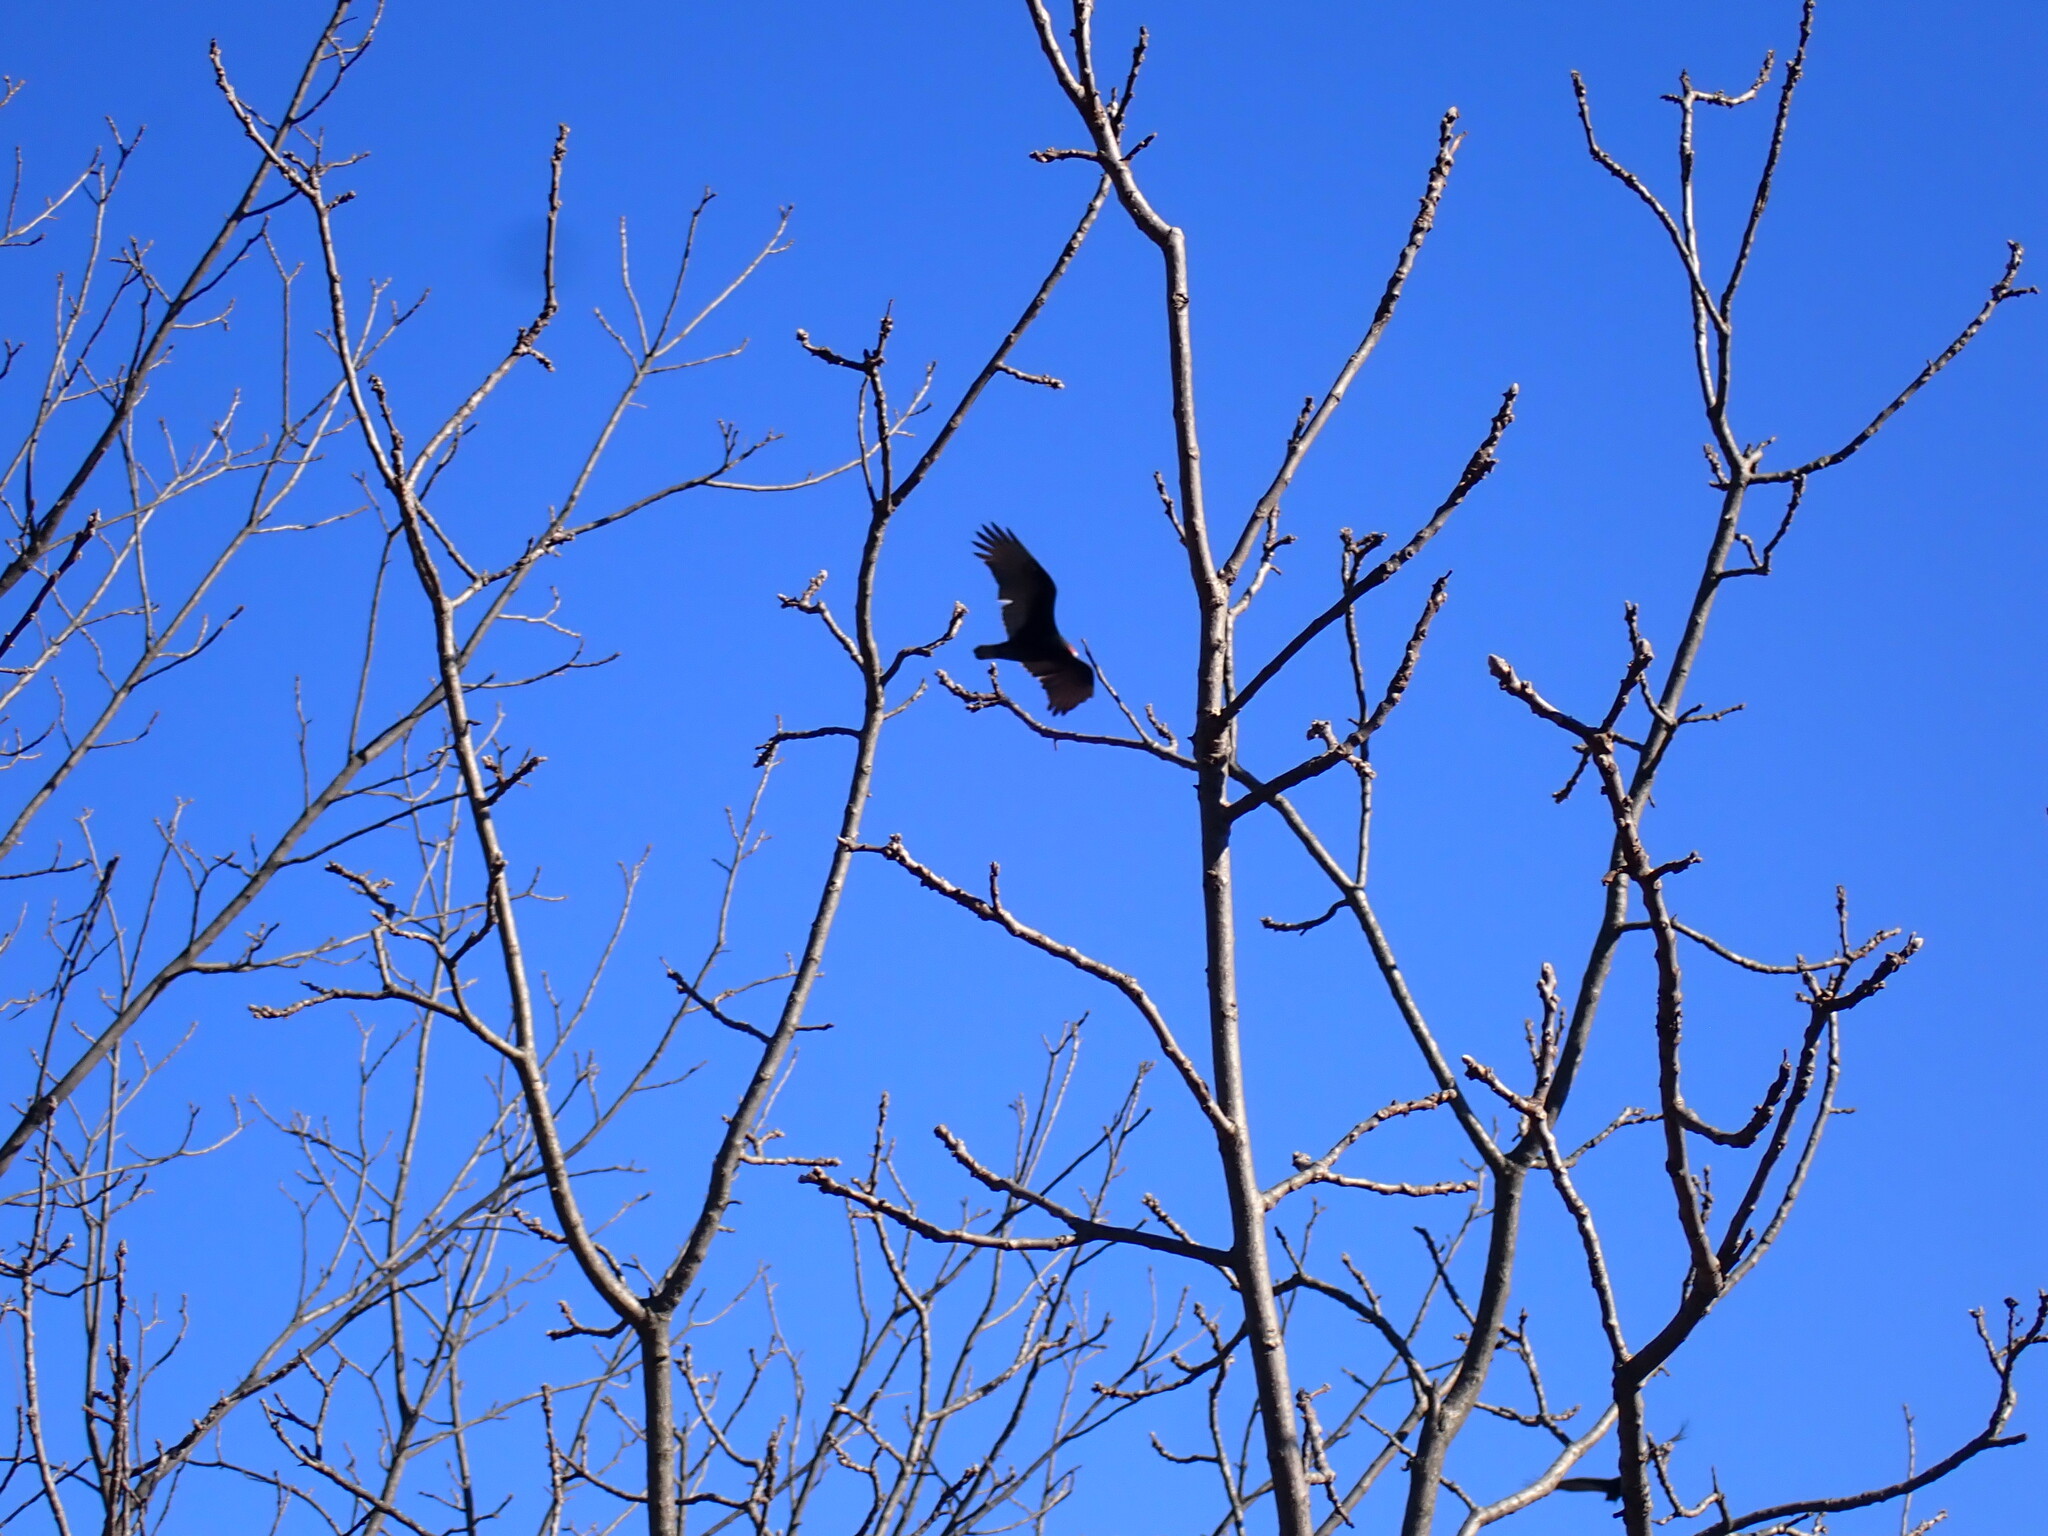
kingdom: Animalia
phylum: Chordata
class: Aves
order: Accipitriformes
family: Cathartidae
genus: Cathartes
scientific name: Cathartes aura
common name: Turkey vulture
